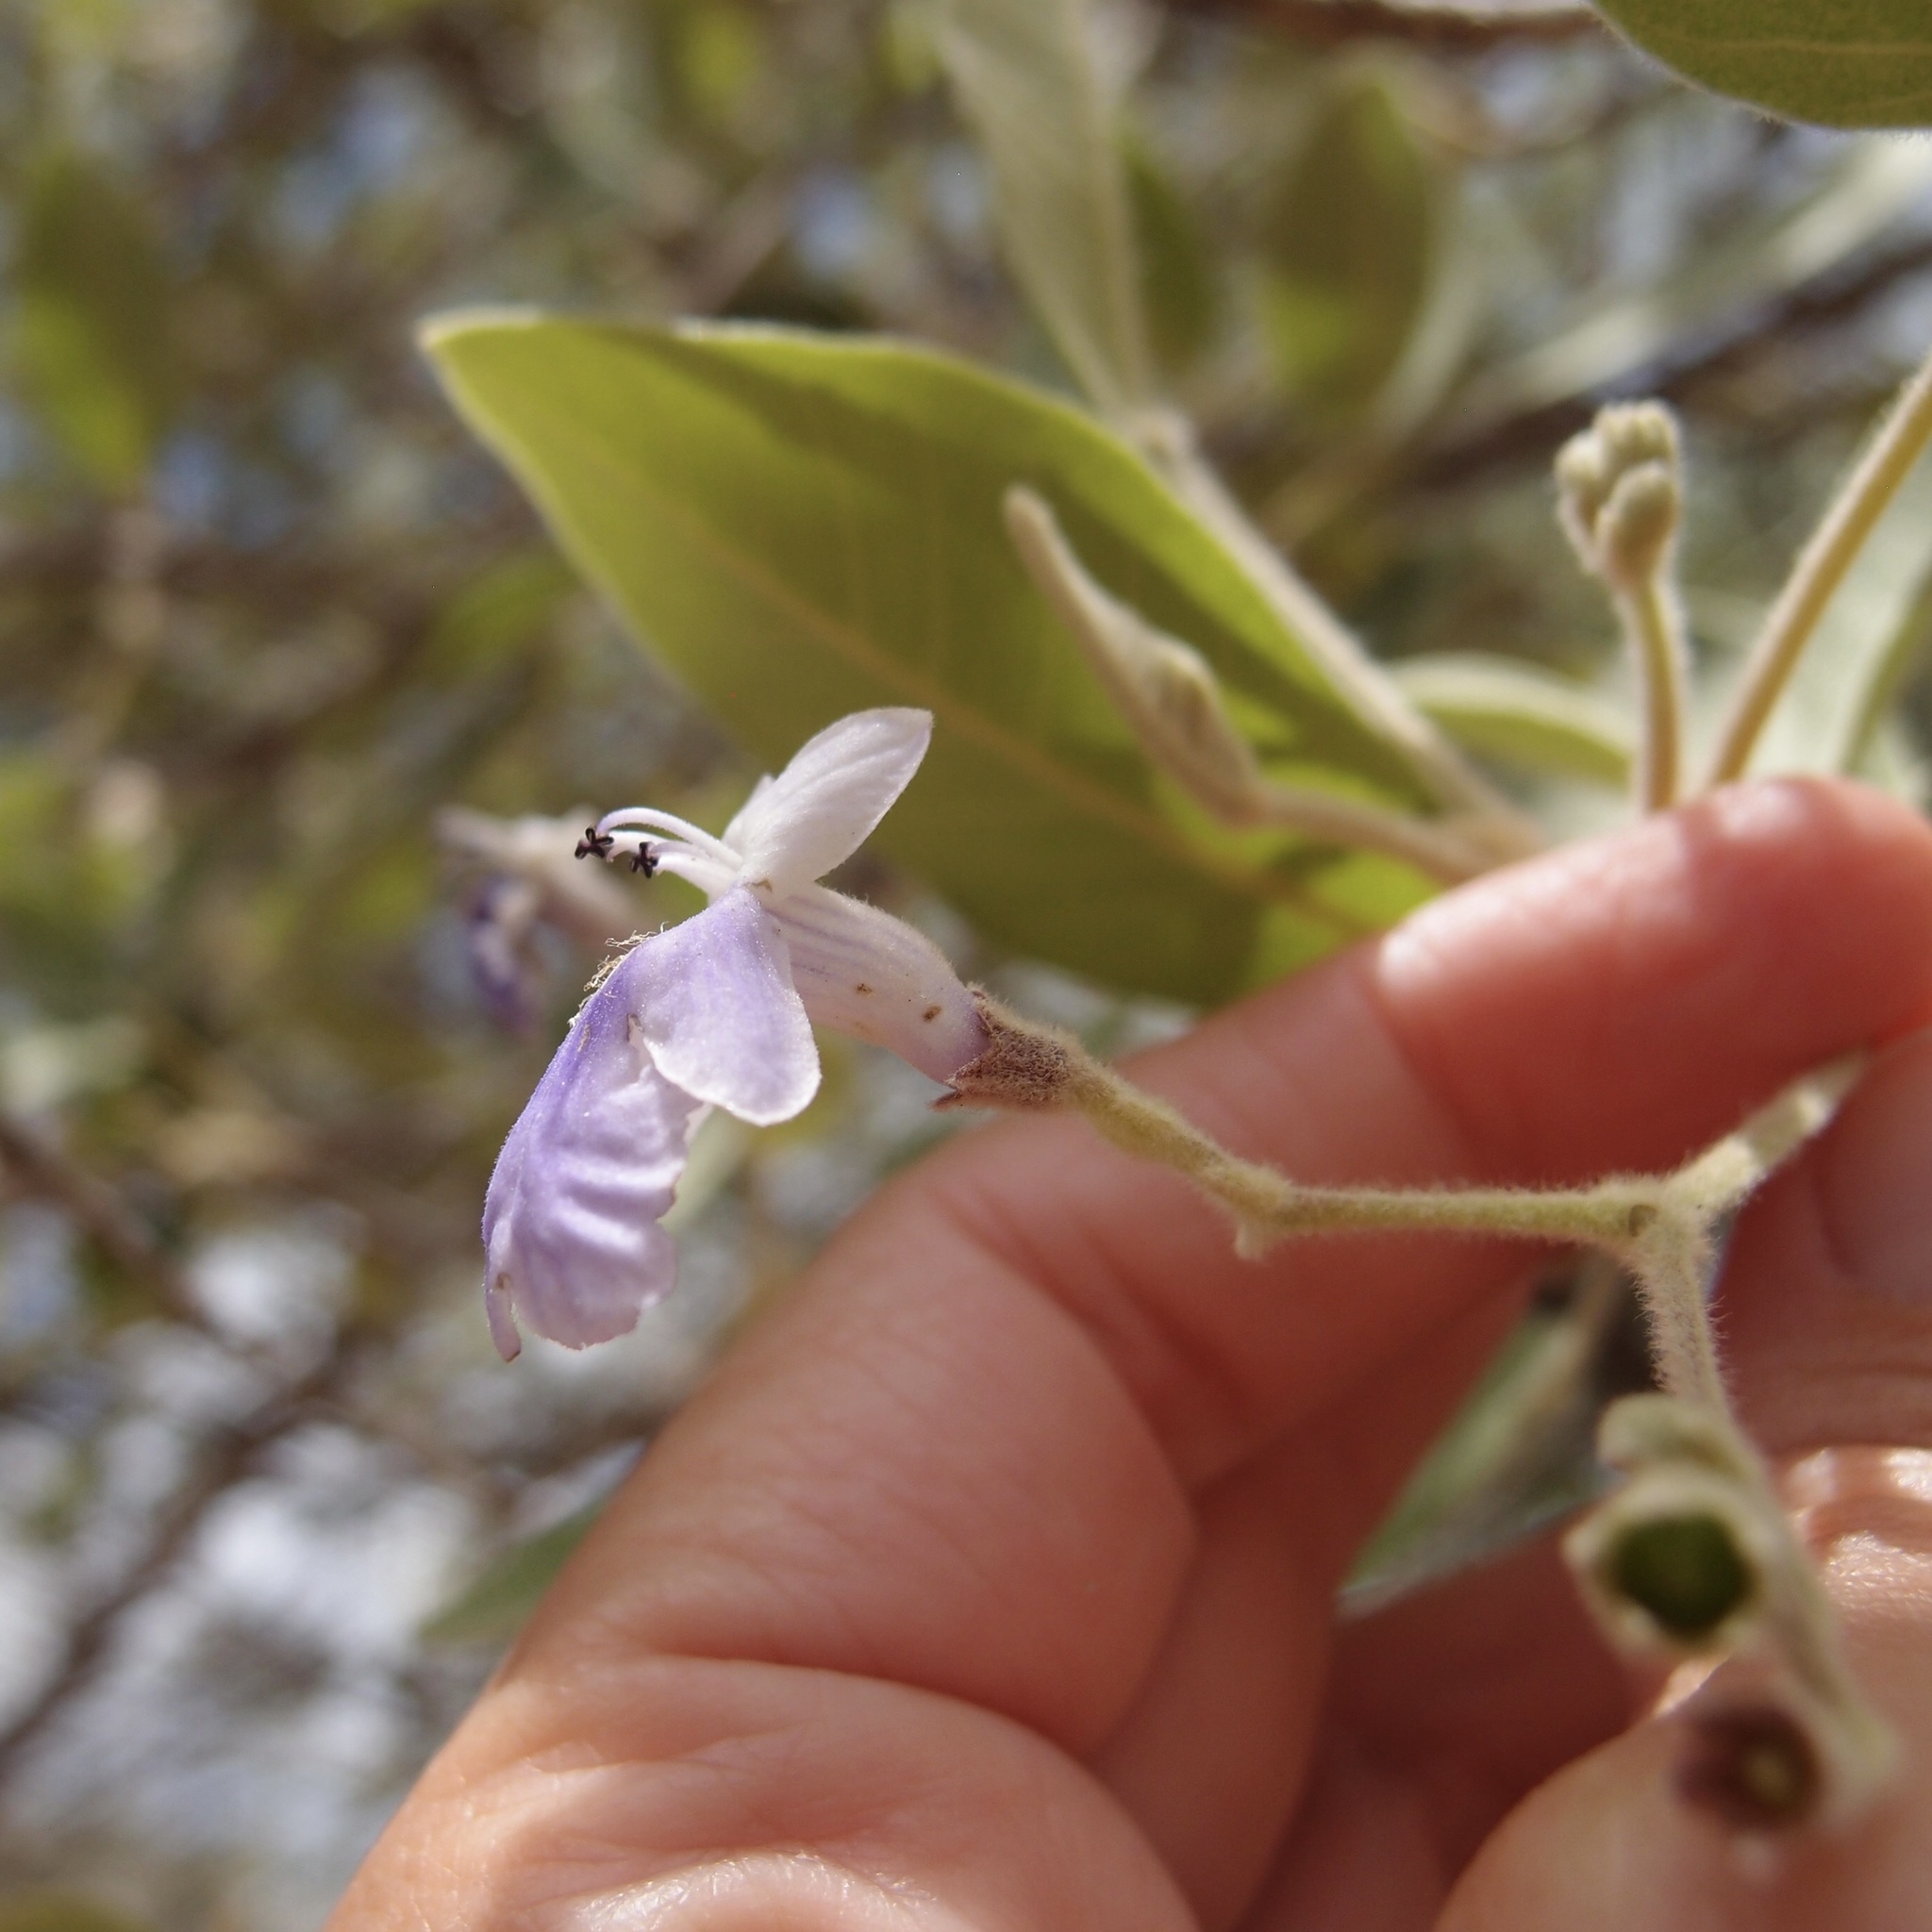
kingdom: Plantae
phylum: Tracheophyta
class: Magnoliopsida
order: Lamiales
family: Lamiaceae
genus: Vitex
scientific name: Vitex mollis
